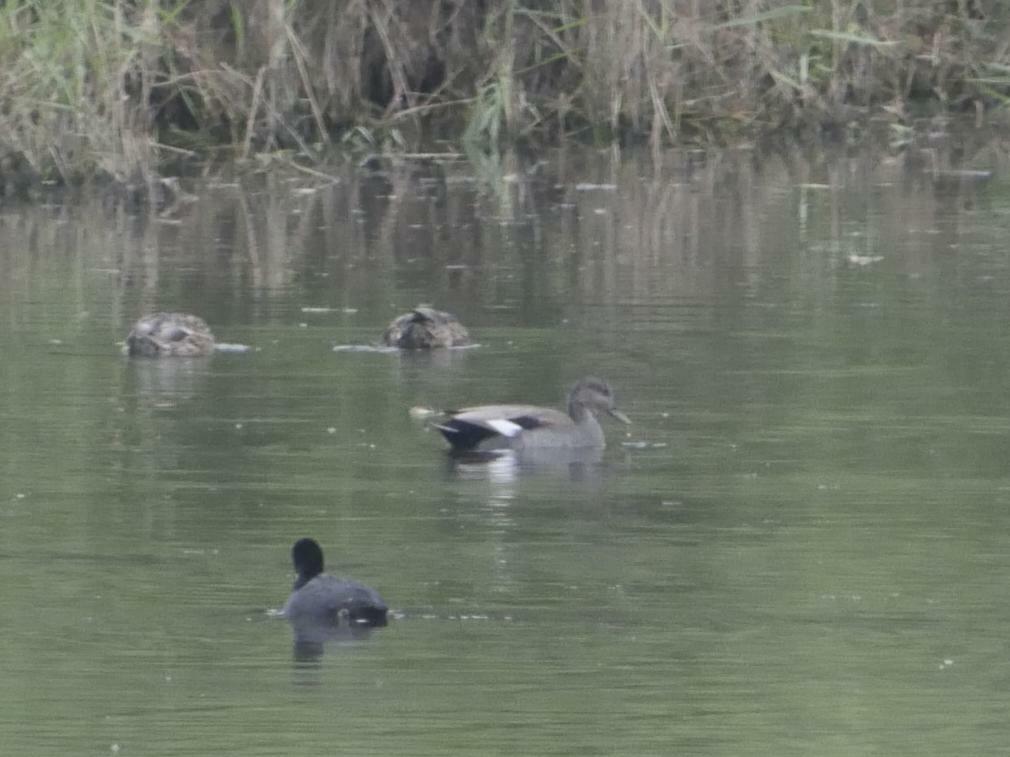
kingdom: Animalia
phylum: Chordata
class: Aves
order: Anseriformes
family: Anatidae
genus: Mareca
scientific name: Mareca strepera
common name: Gadwall
